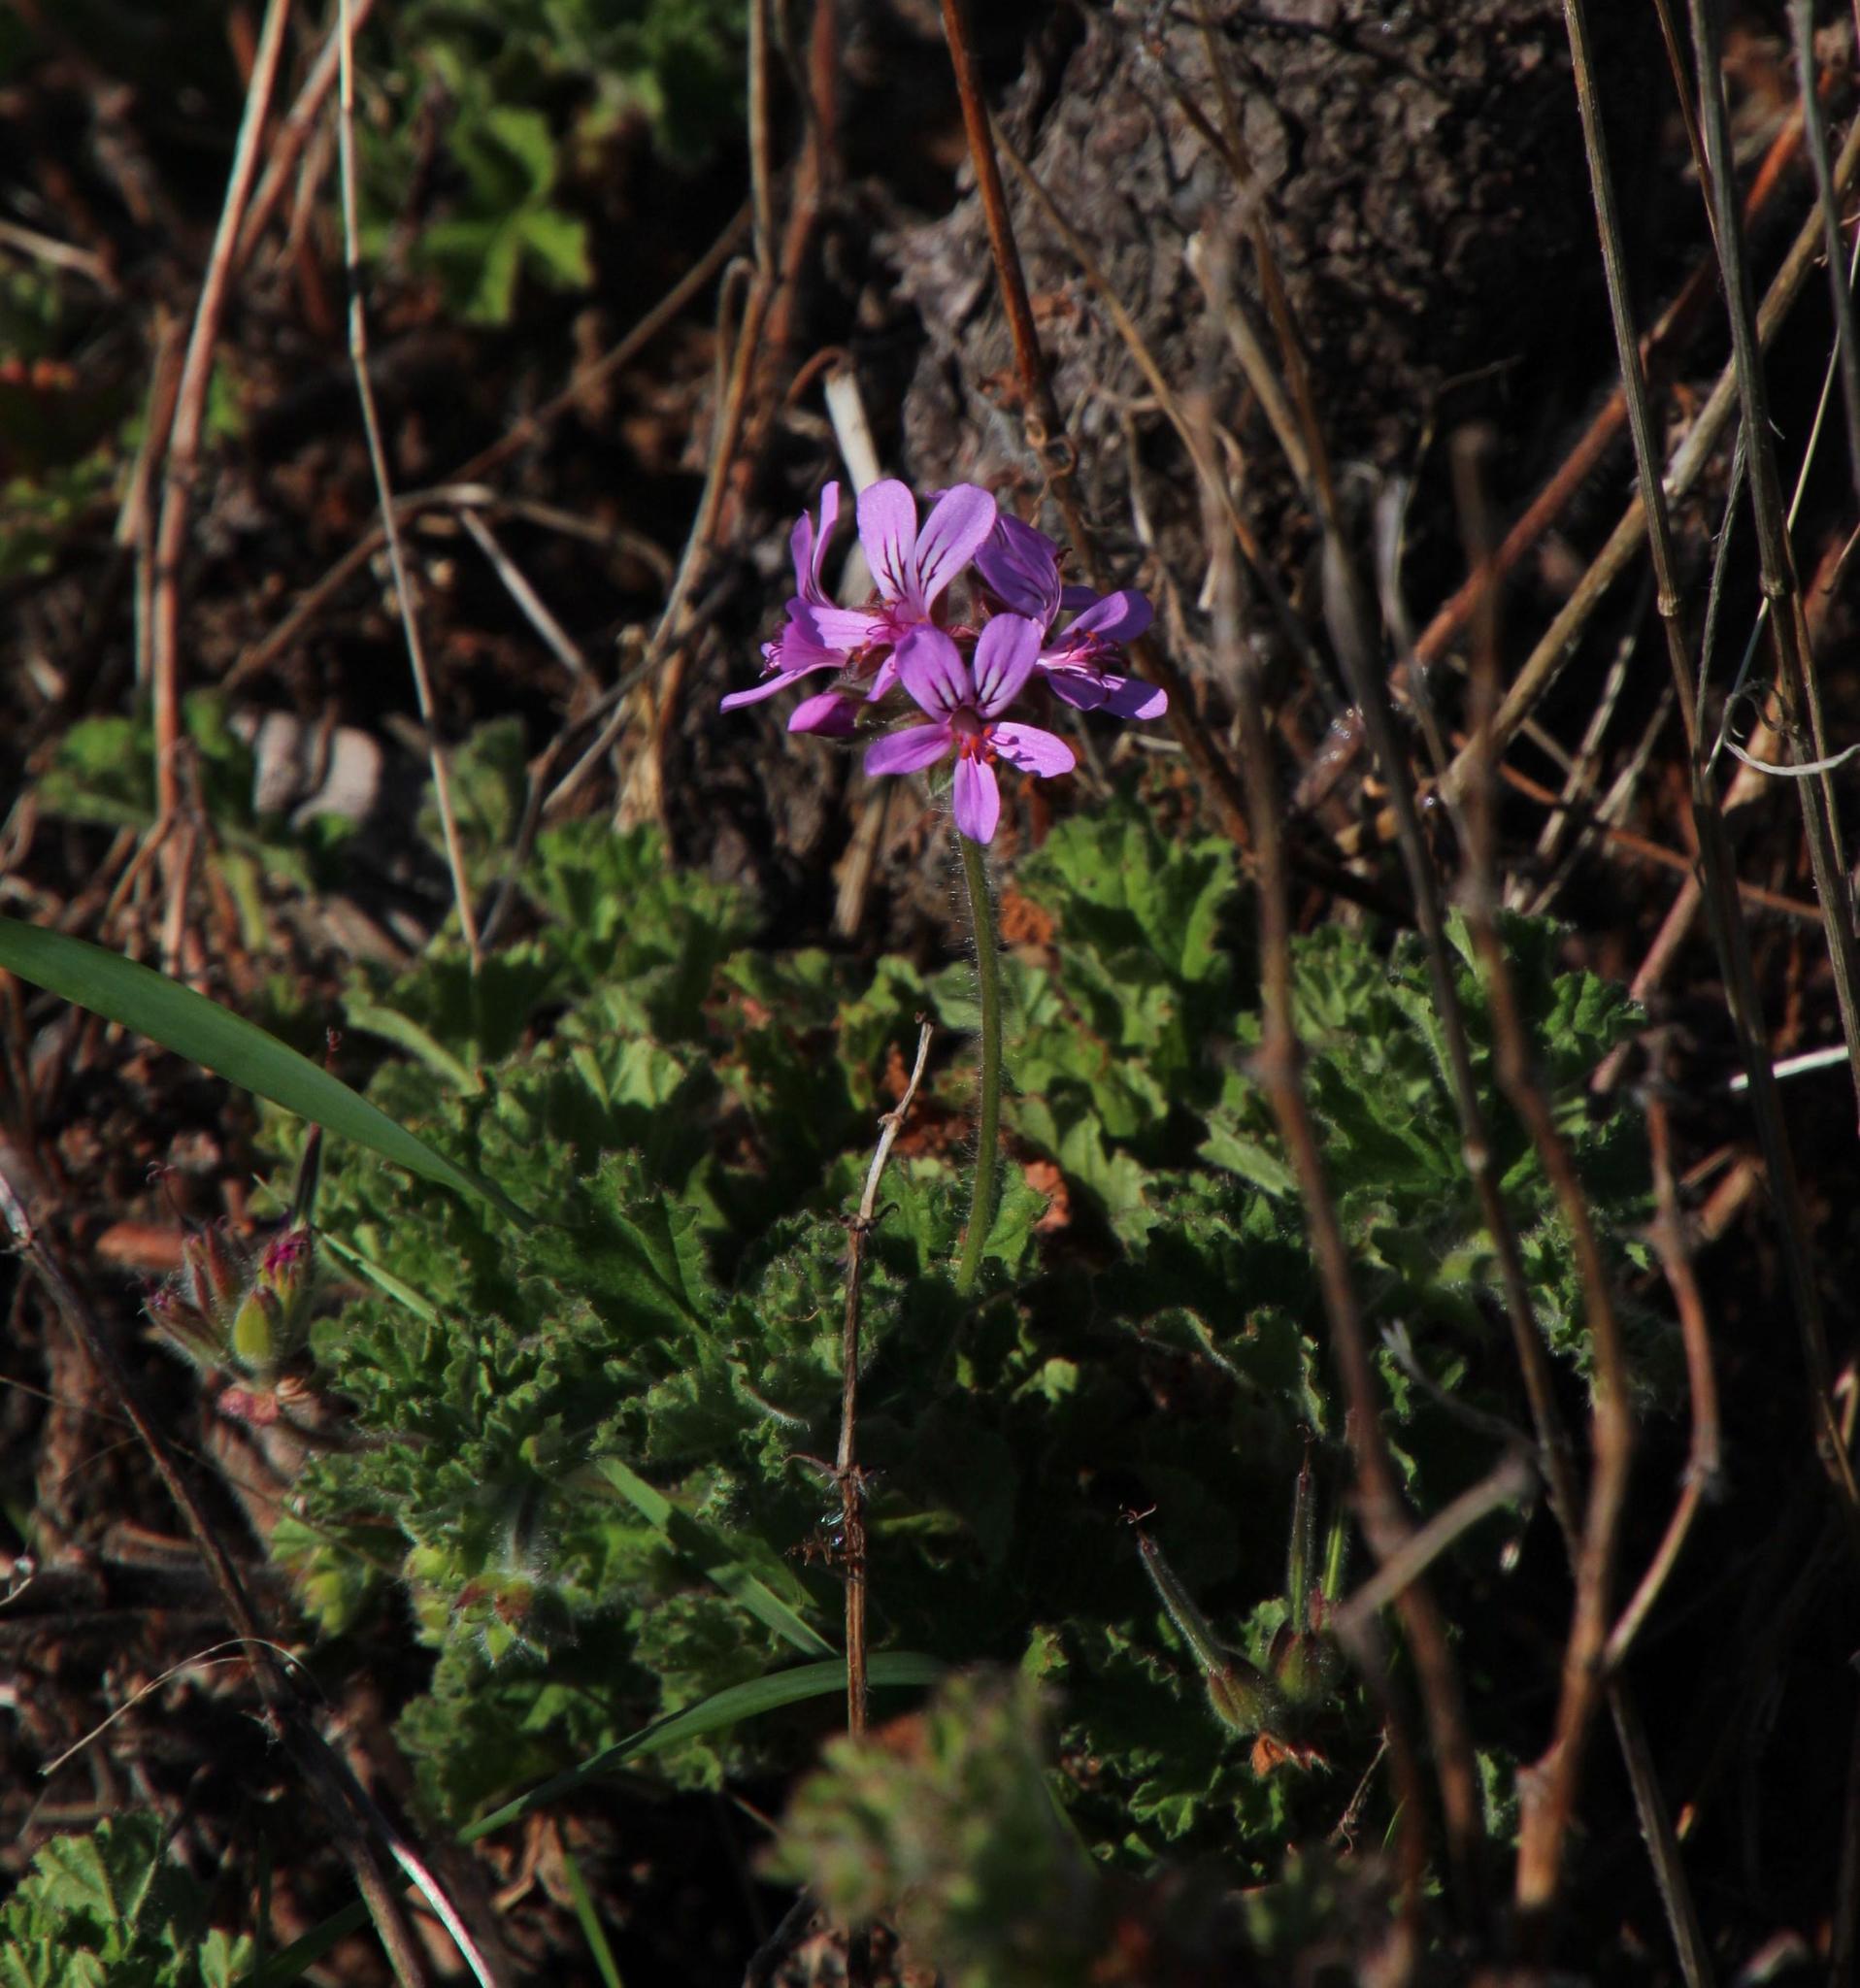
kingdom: Plantae
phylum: Tracheophyta
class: Magnoliopsida
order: Geraniales
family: Geraniaceae
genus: Pelargonium
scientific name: Pelargonium capitatum
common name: Rose scented geranium
